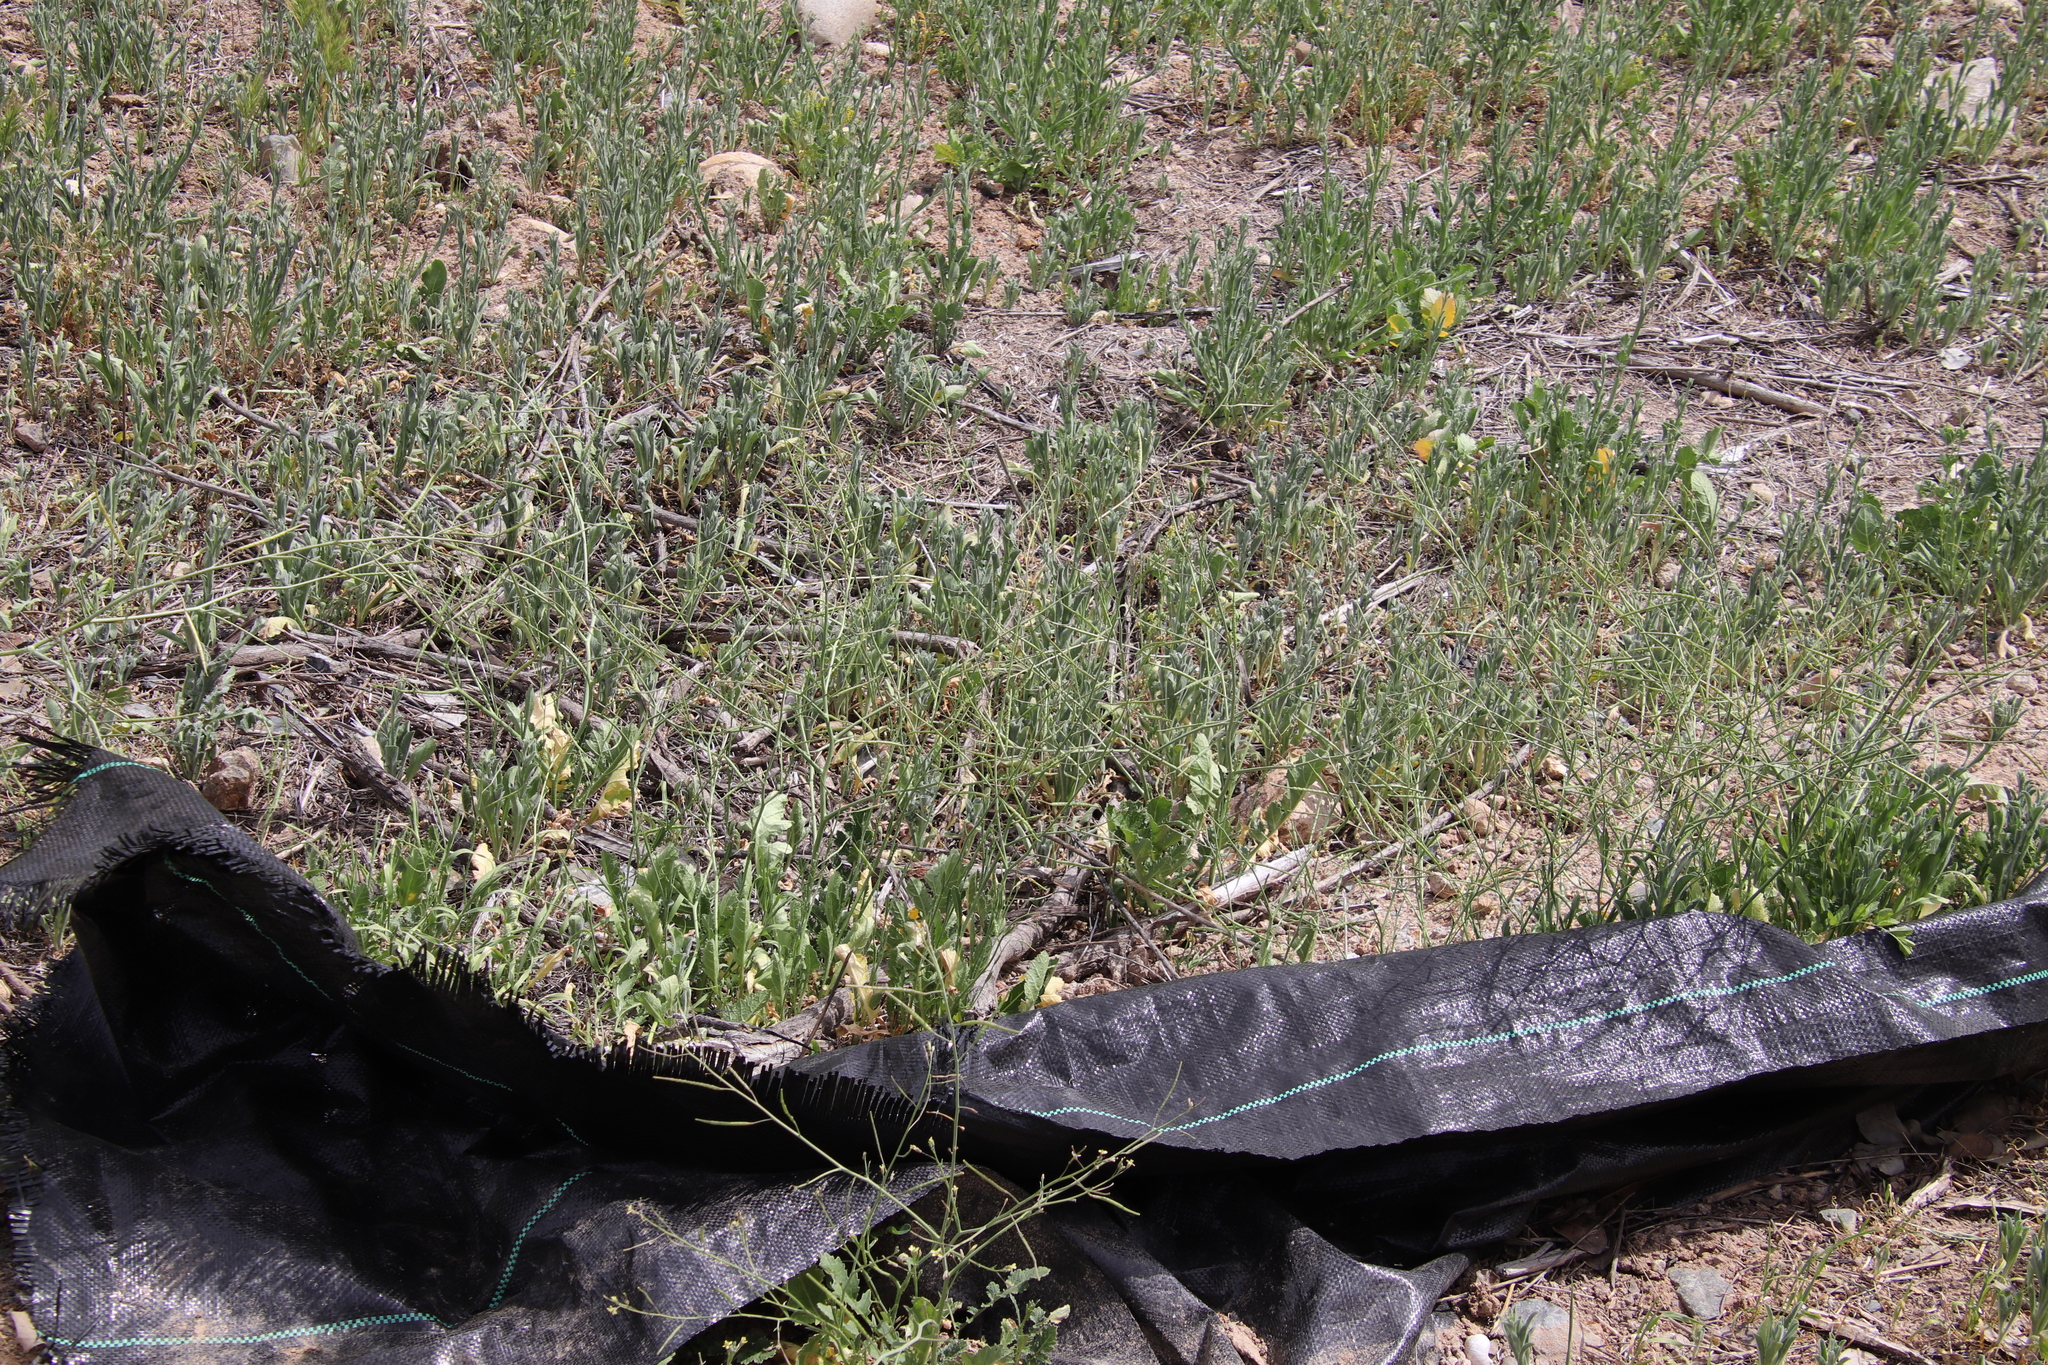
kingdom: Plantae
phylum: Tracheophyta
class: Magnoliopsida
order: Brassicales
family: Brassicaceae
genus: Brassica
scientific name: Brassica tournefortii
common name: Pale cabbage
